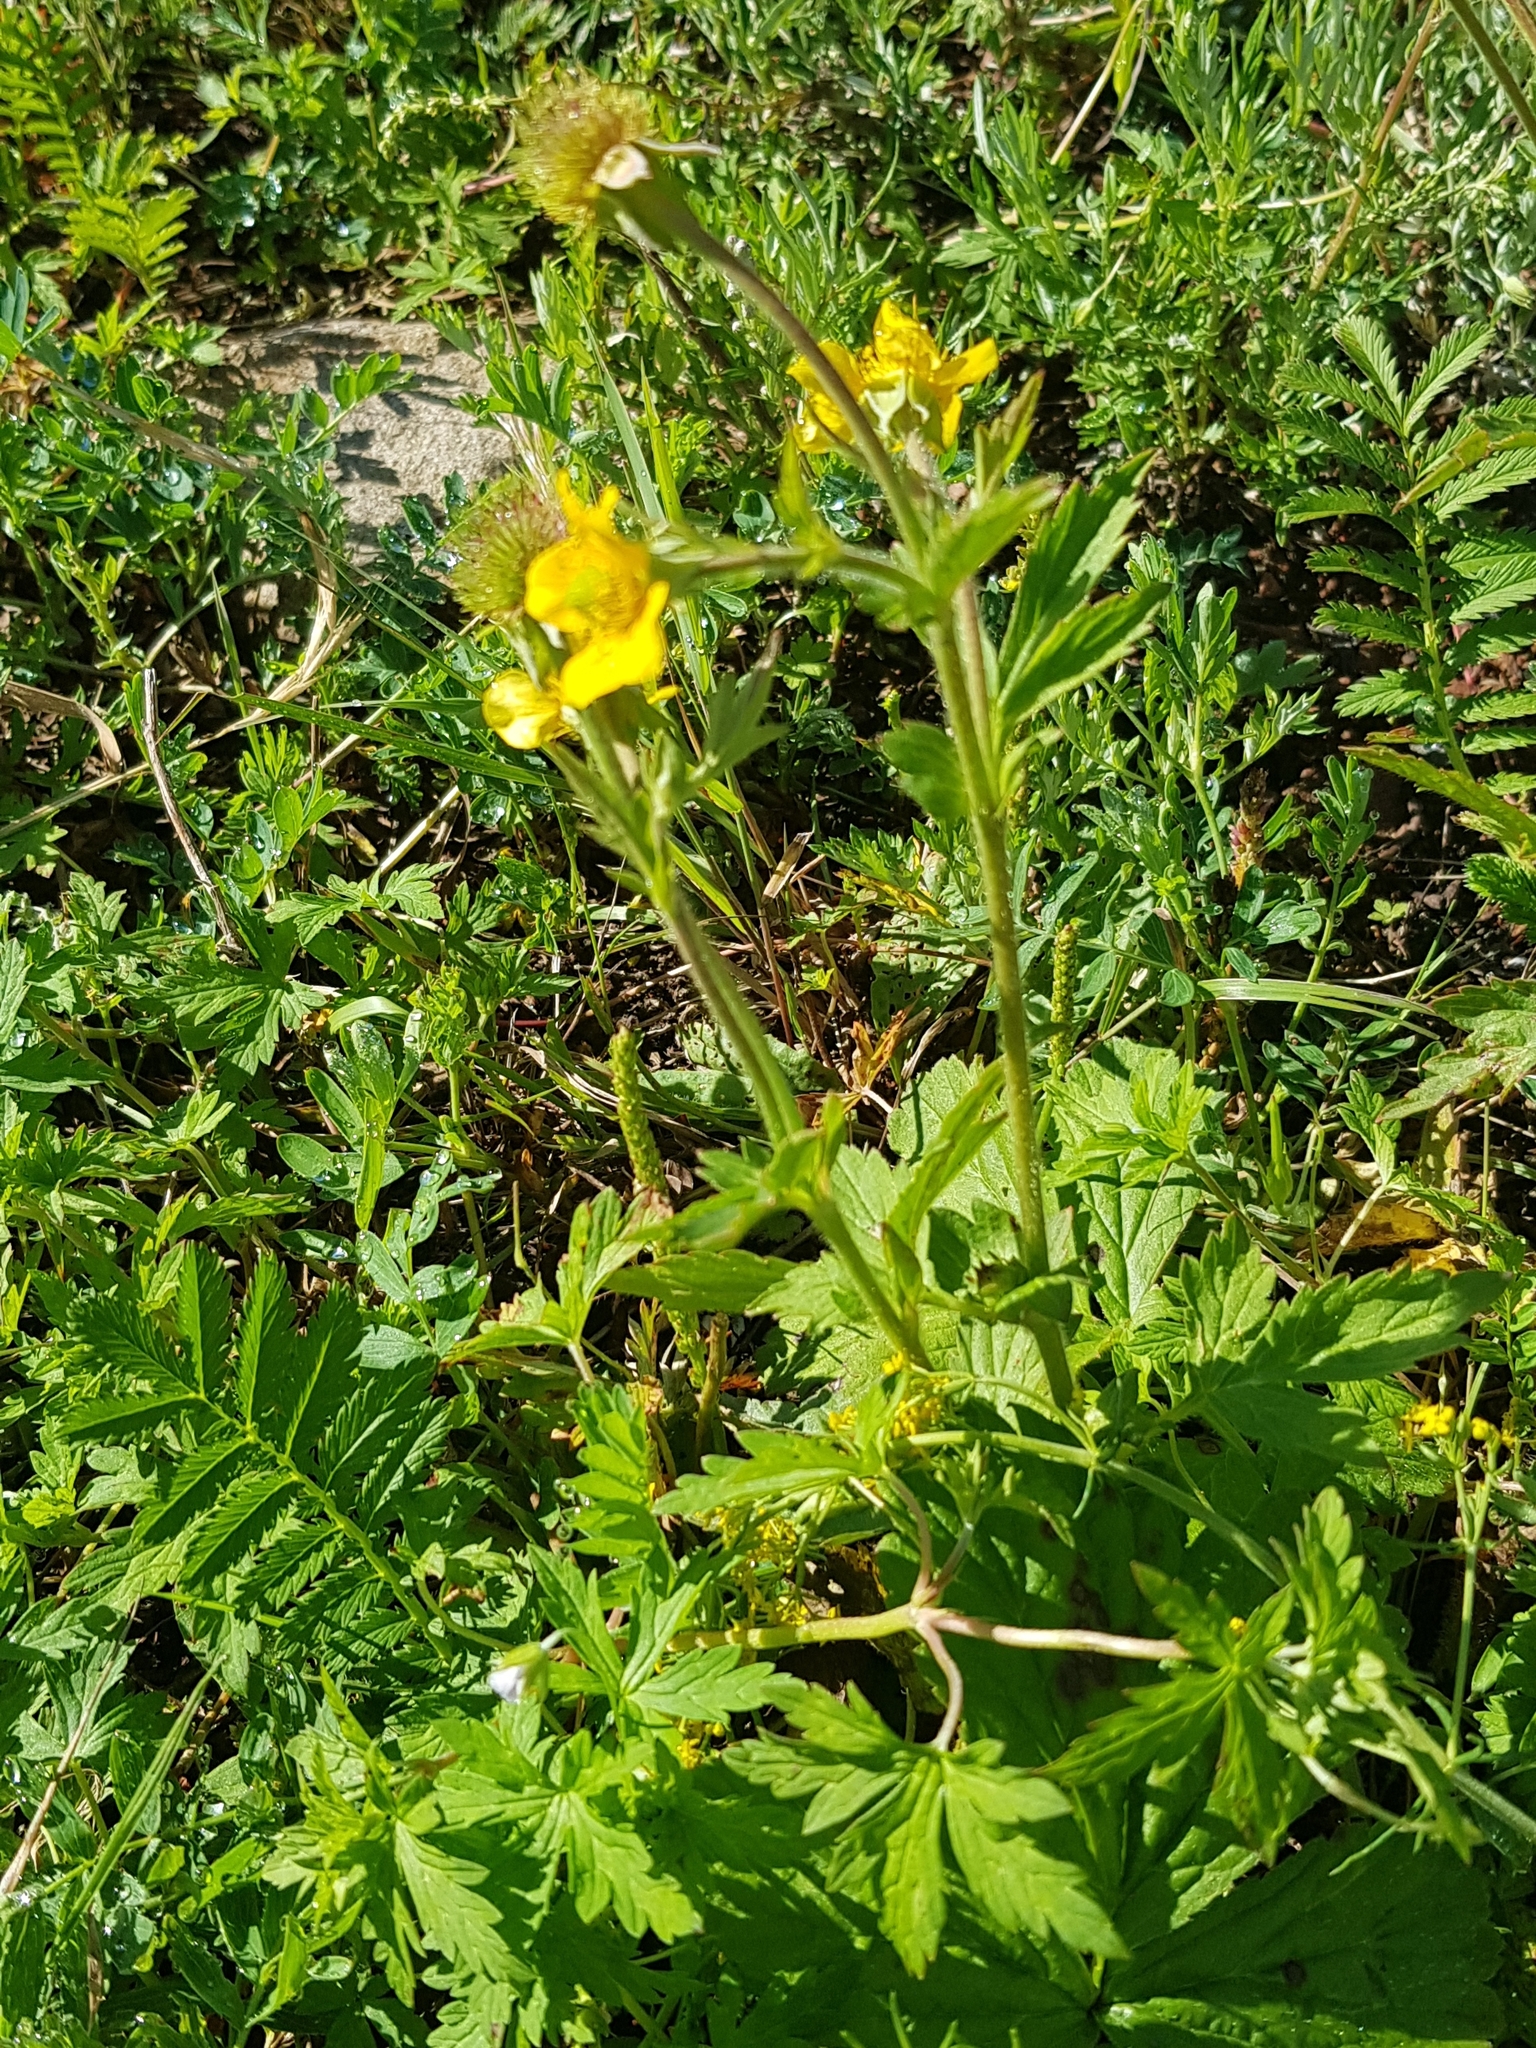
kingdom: Plantae
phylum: Tracheophyta
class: Magnoliopsida
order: Rosales
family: Rosaceae
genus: Geum
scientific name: Geum aleppicum
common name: Yellow avens
